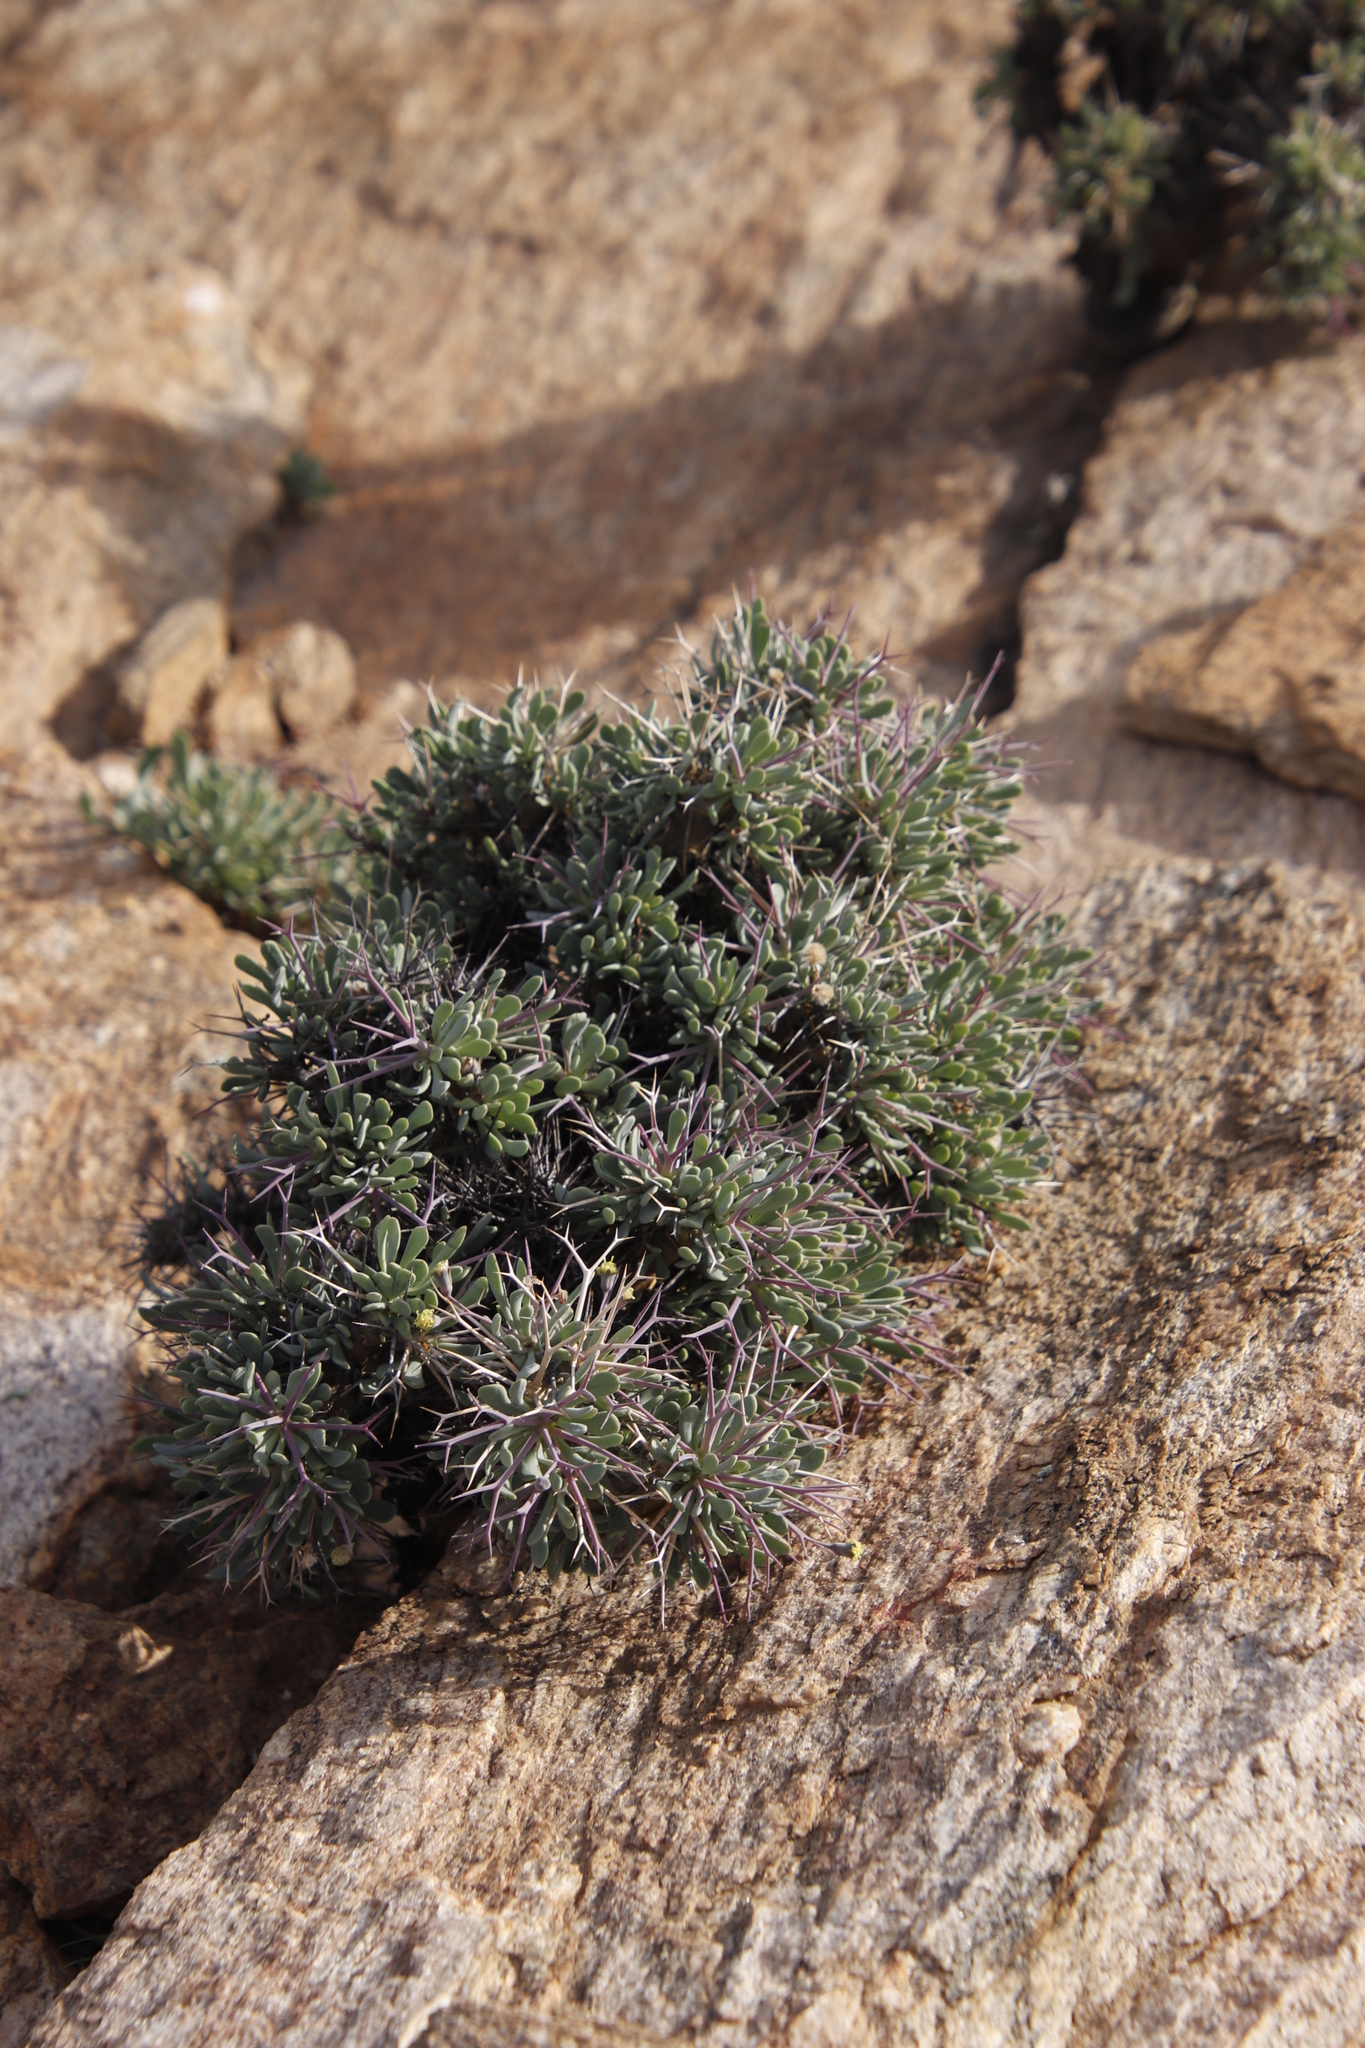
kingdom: Plantae
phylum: Tracheophyta
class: Magnoliopsida
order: Asterales
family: Asteraceae
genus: Othonna
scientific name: Othonna euphorbioides
